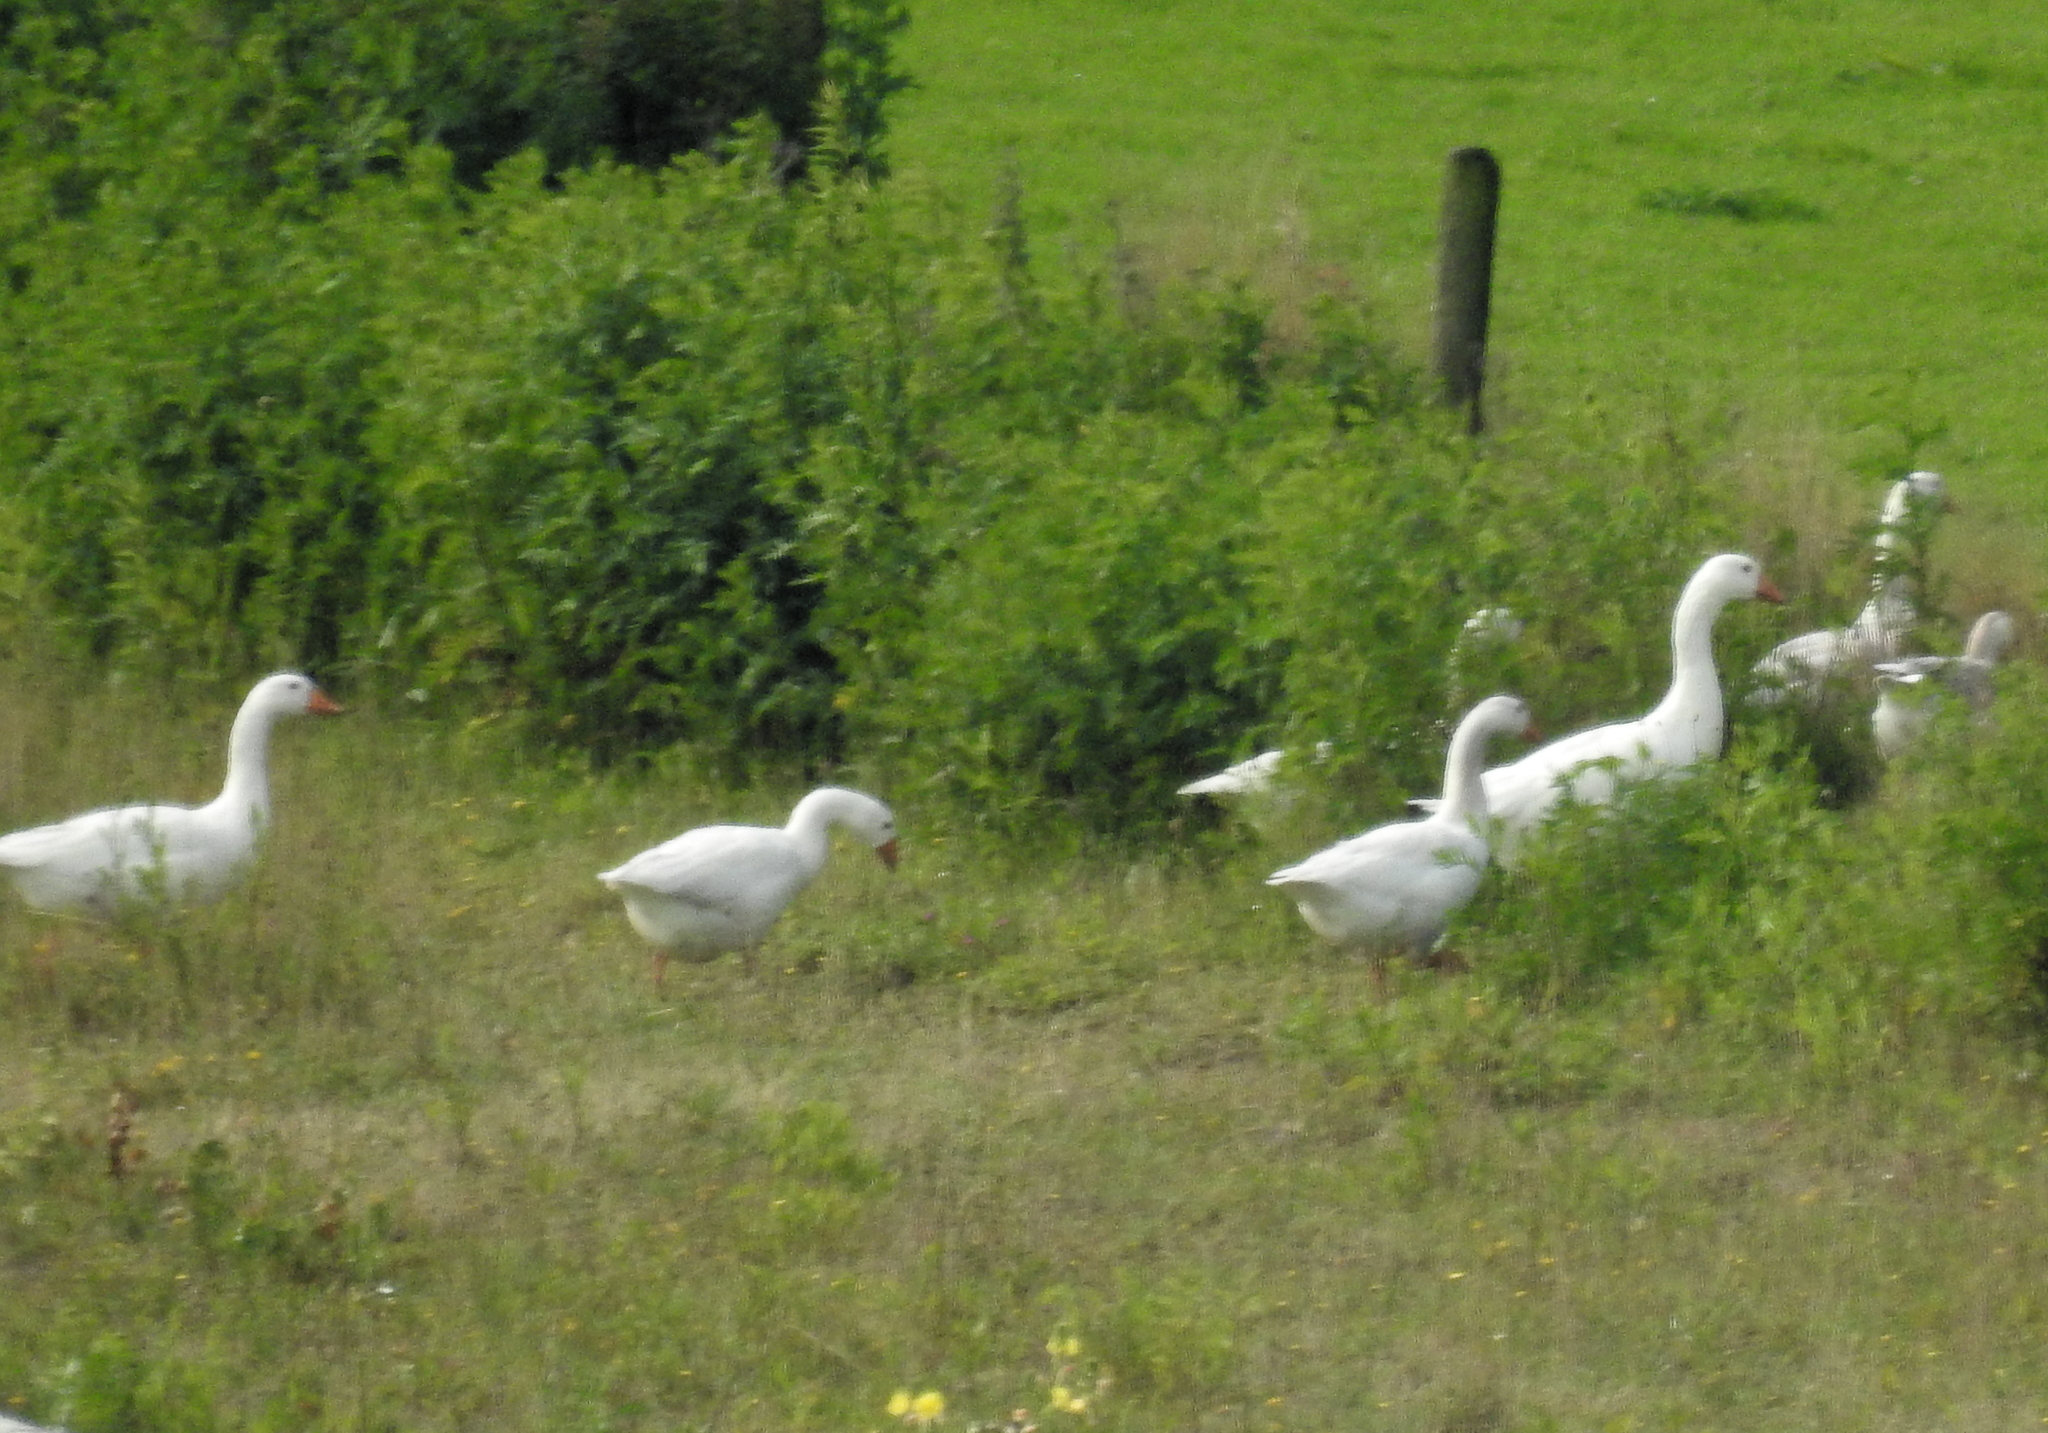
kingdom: Animalia
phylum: Chordata
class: Aves
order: Anseriformes
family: Anatidae
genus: Anser
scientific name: Anser anser
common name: Greylag goose
